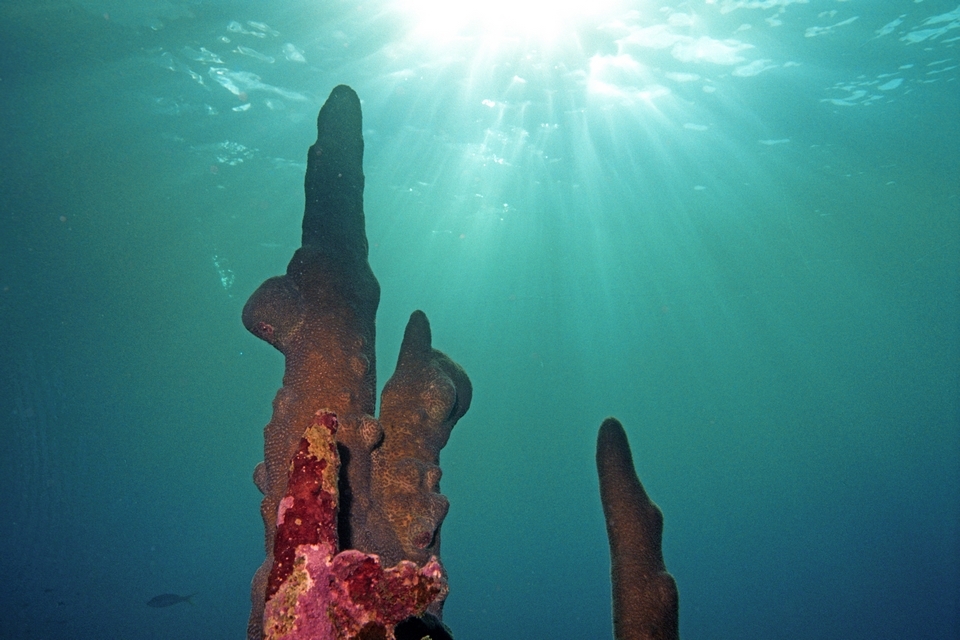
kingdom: Animalia
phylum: Cnidaria
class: Anthozoa
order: Scleractinia
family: Meandrinidae
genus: Dendrogyra
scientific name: Dendrogyra cylindrus
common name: Pillar coral
